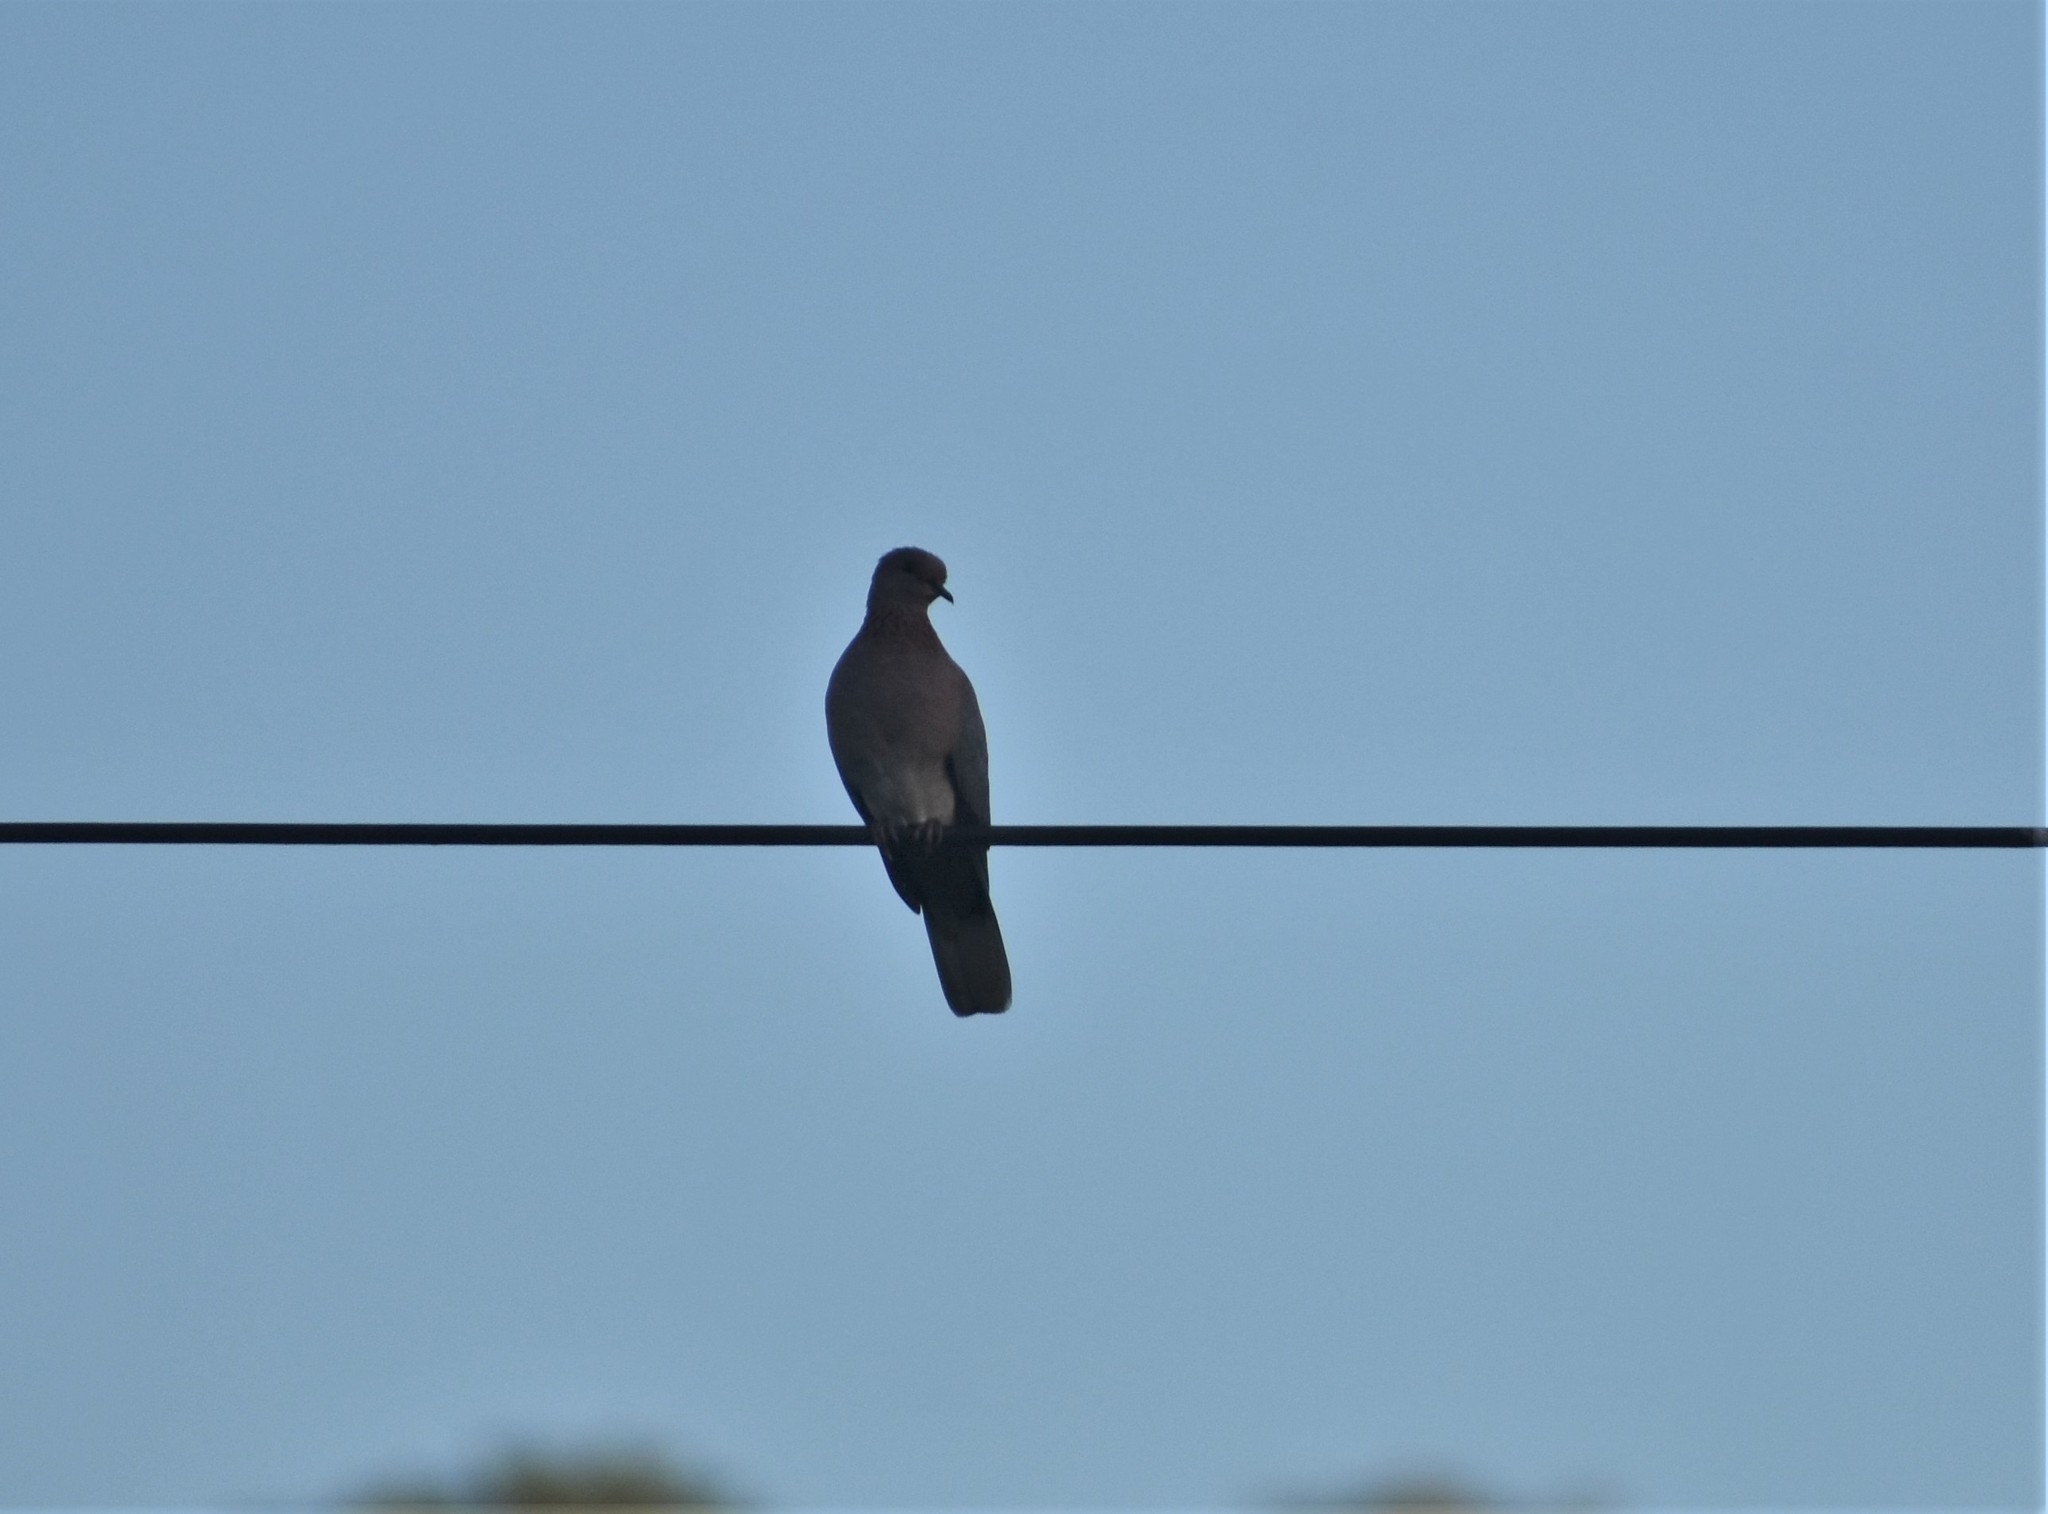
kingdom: Animalia
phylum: Chordata
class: Aves
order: Columbiformes
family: Columbidae
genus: Spilopelia
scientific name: Spilopelia senegalensis
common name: Laughing dove
